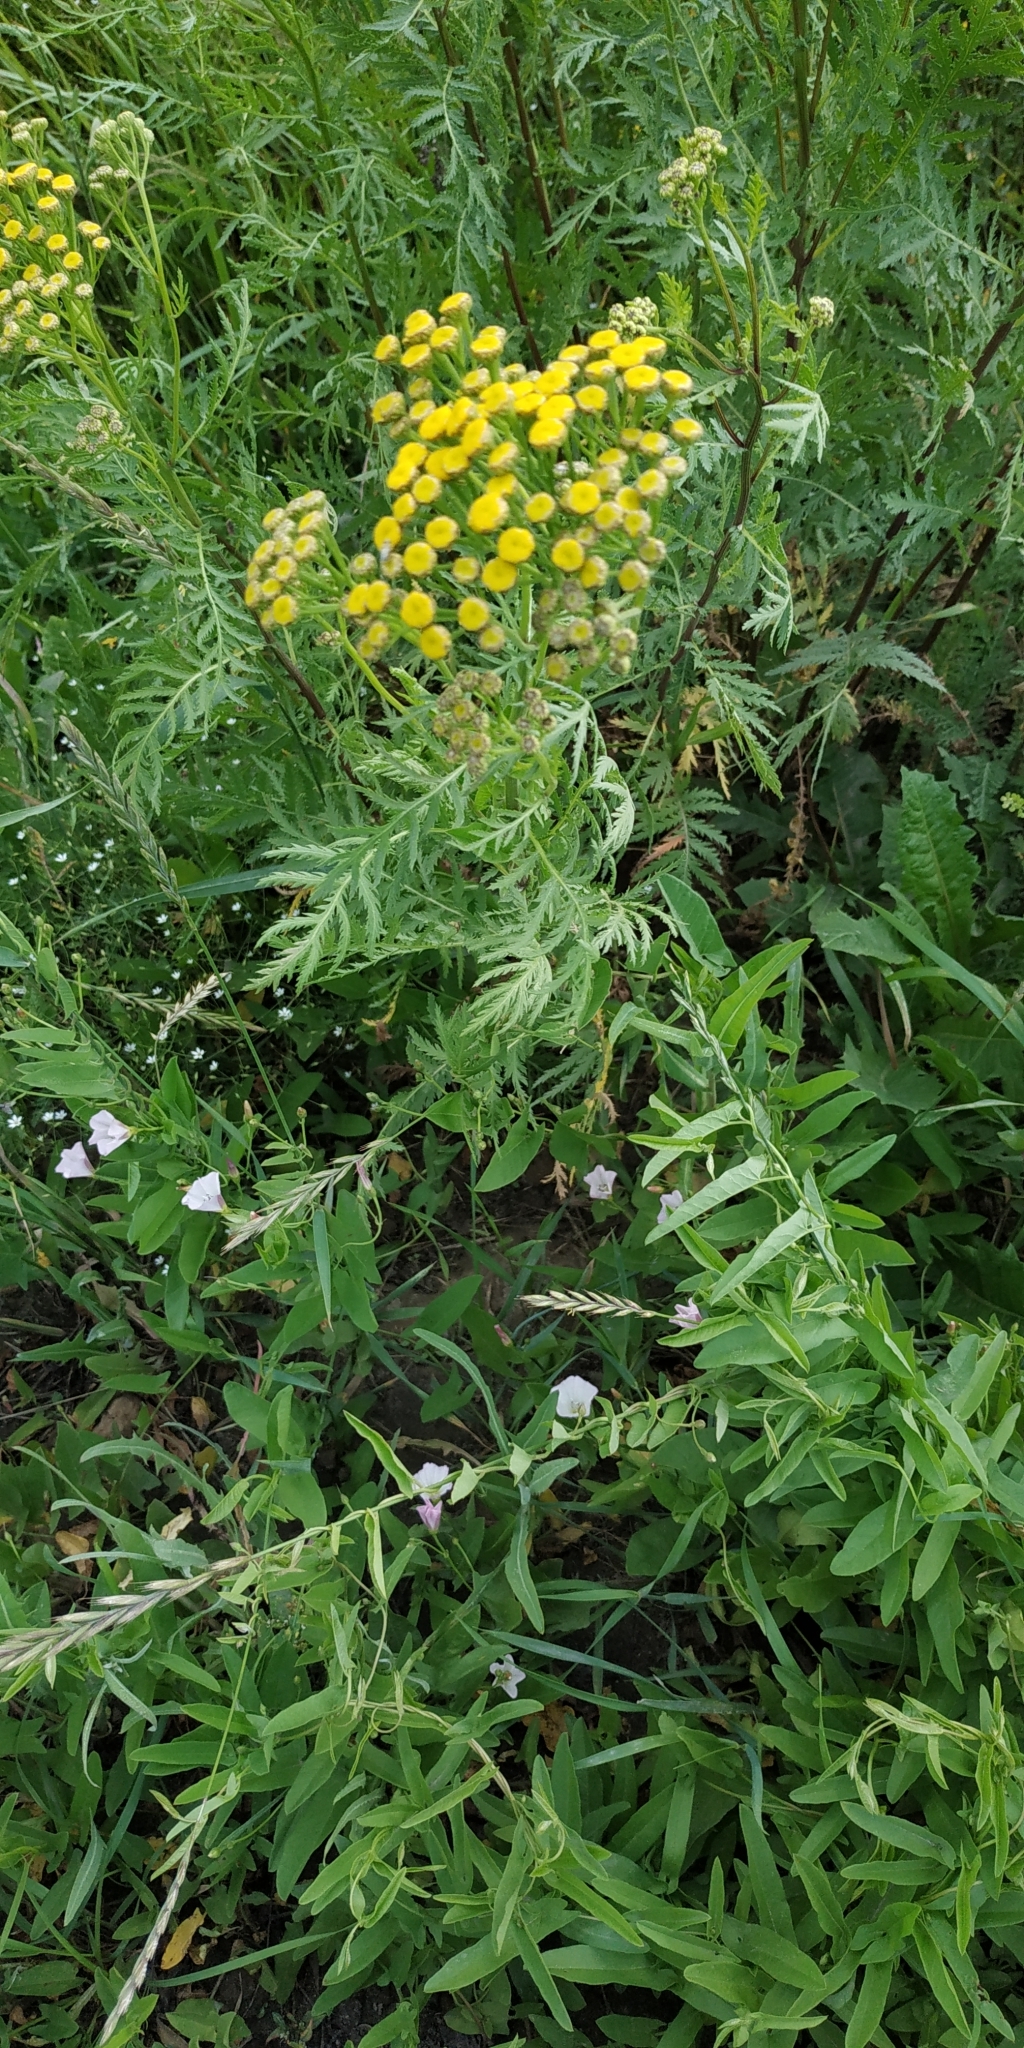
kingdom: Plantae
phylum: Tracheophyta
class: Magnoliopsida
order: Asterales
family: Asteraceae
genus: Tanacetum
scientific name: Tanacetum vulgare
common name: Common tansy
